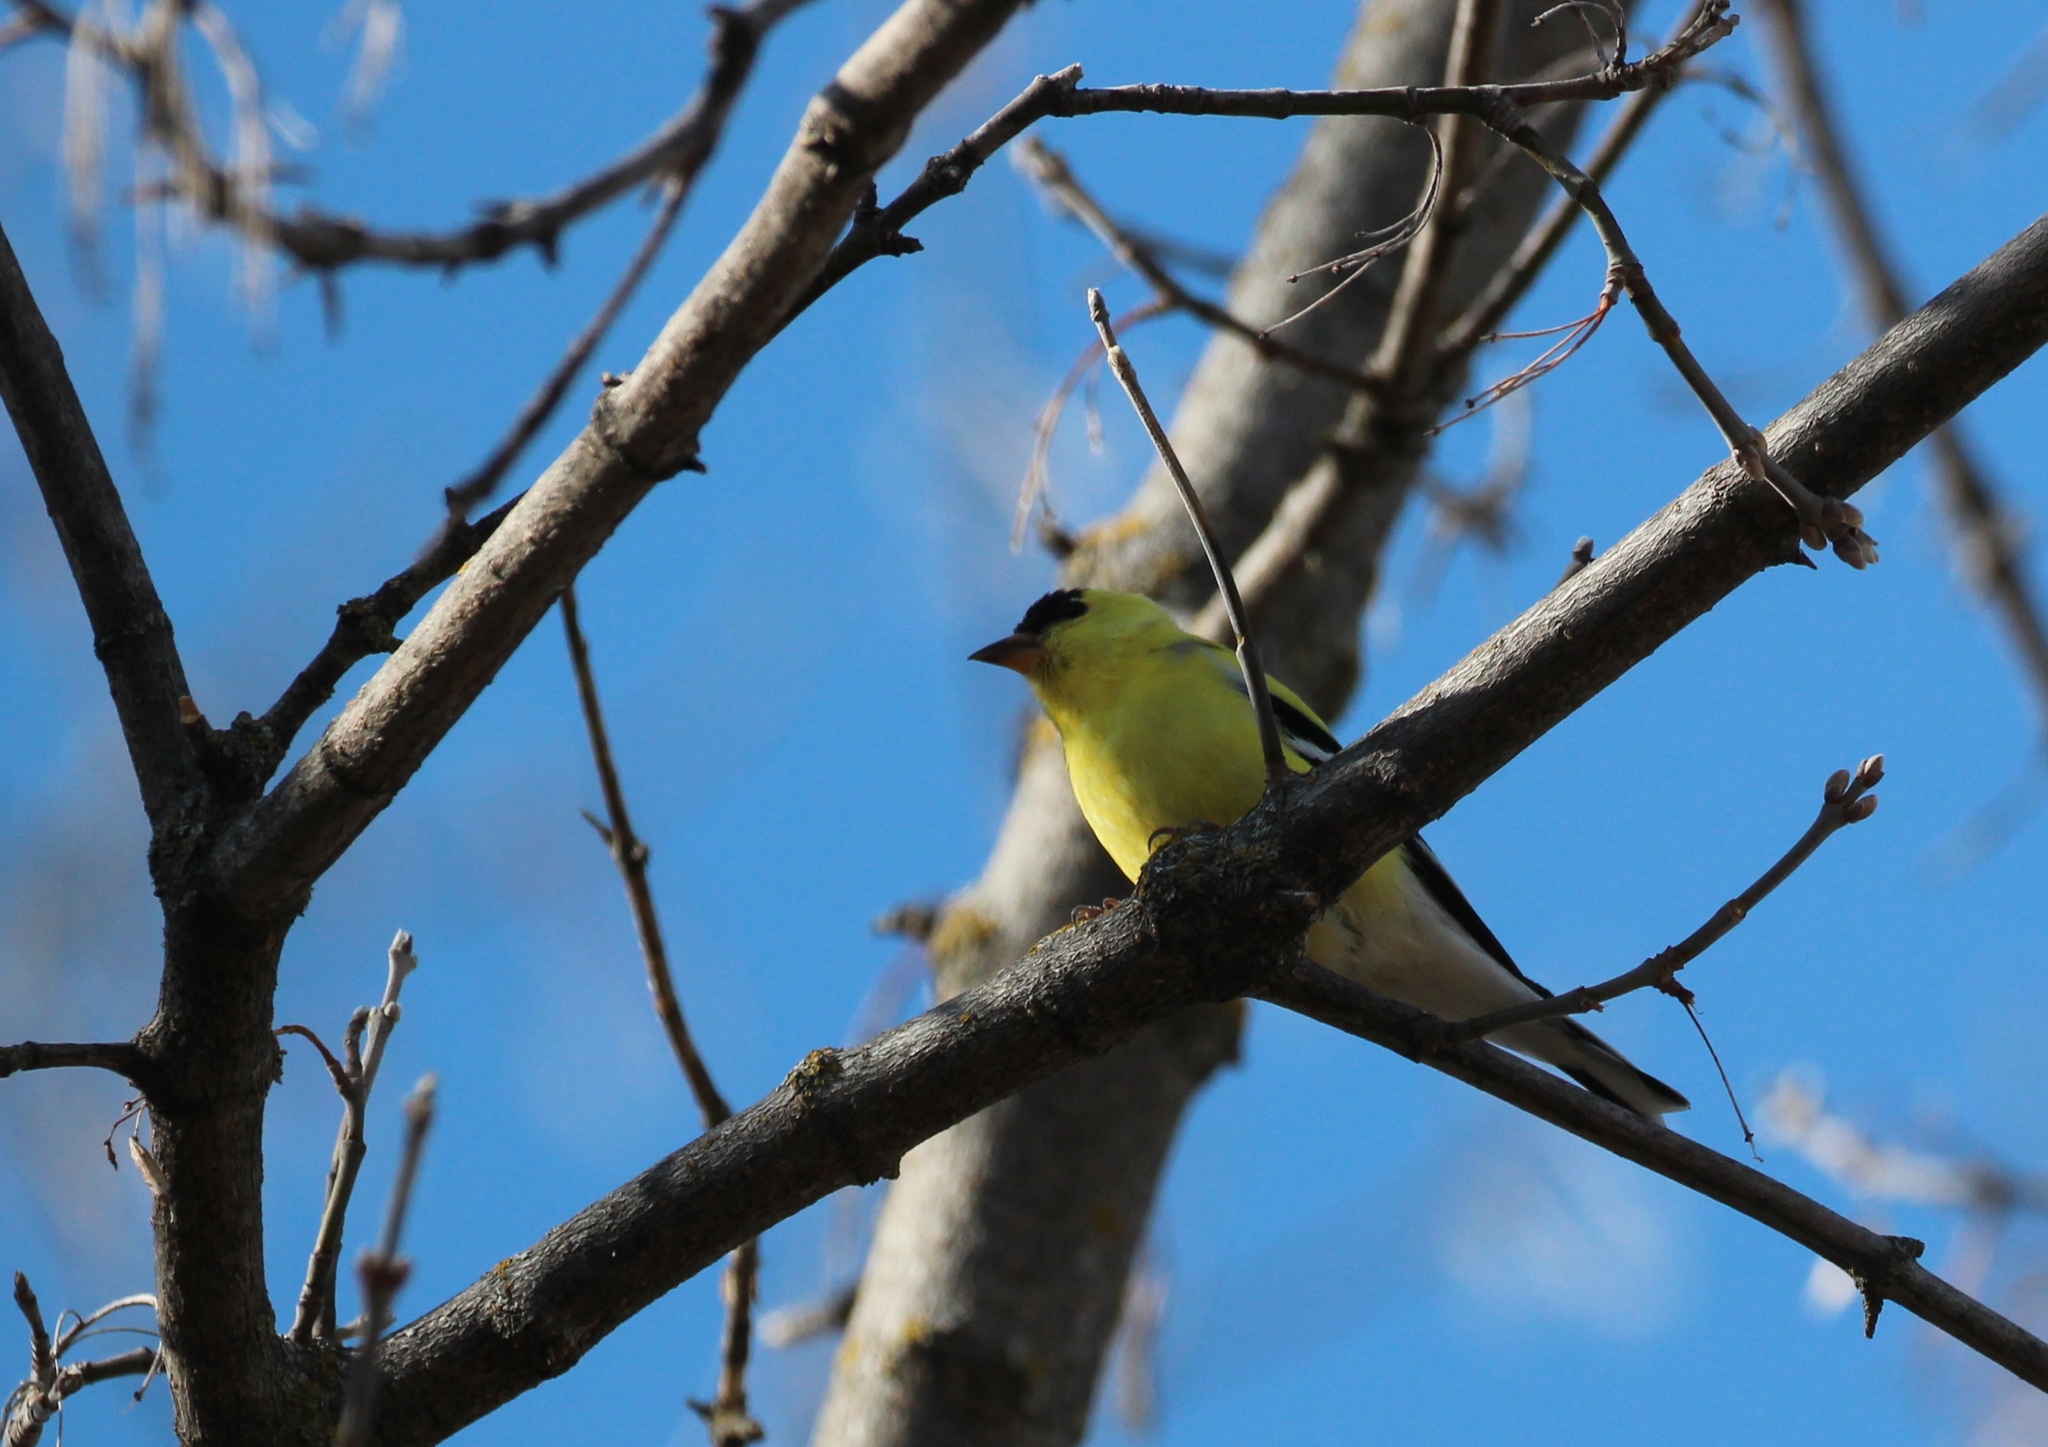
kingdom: Animalia
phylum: Chordata
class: Aves
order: Passeriformes
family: Fringillidae
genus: Spinus
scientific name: Spinus tristis
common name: American goldfinch
